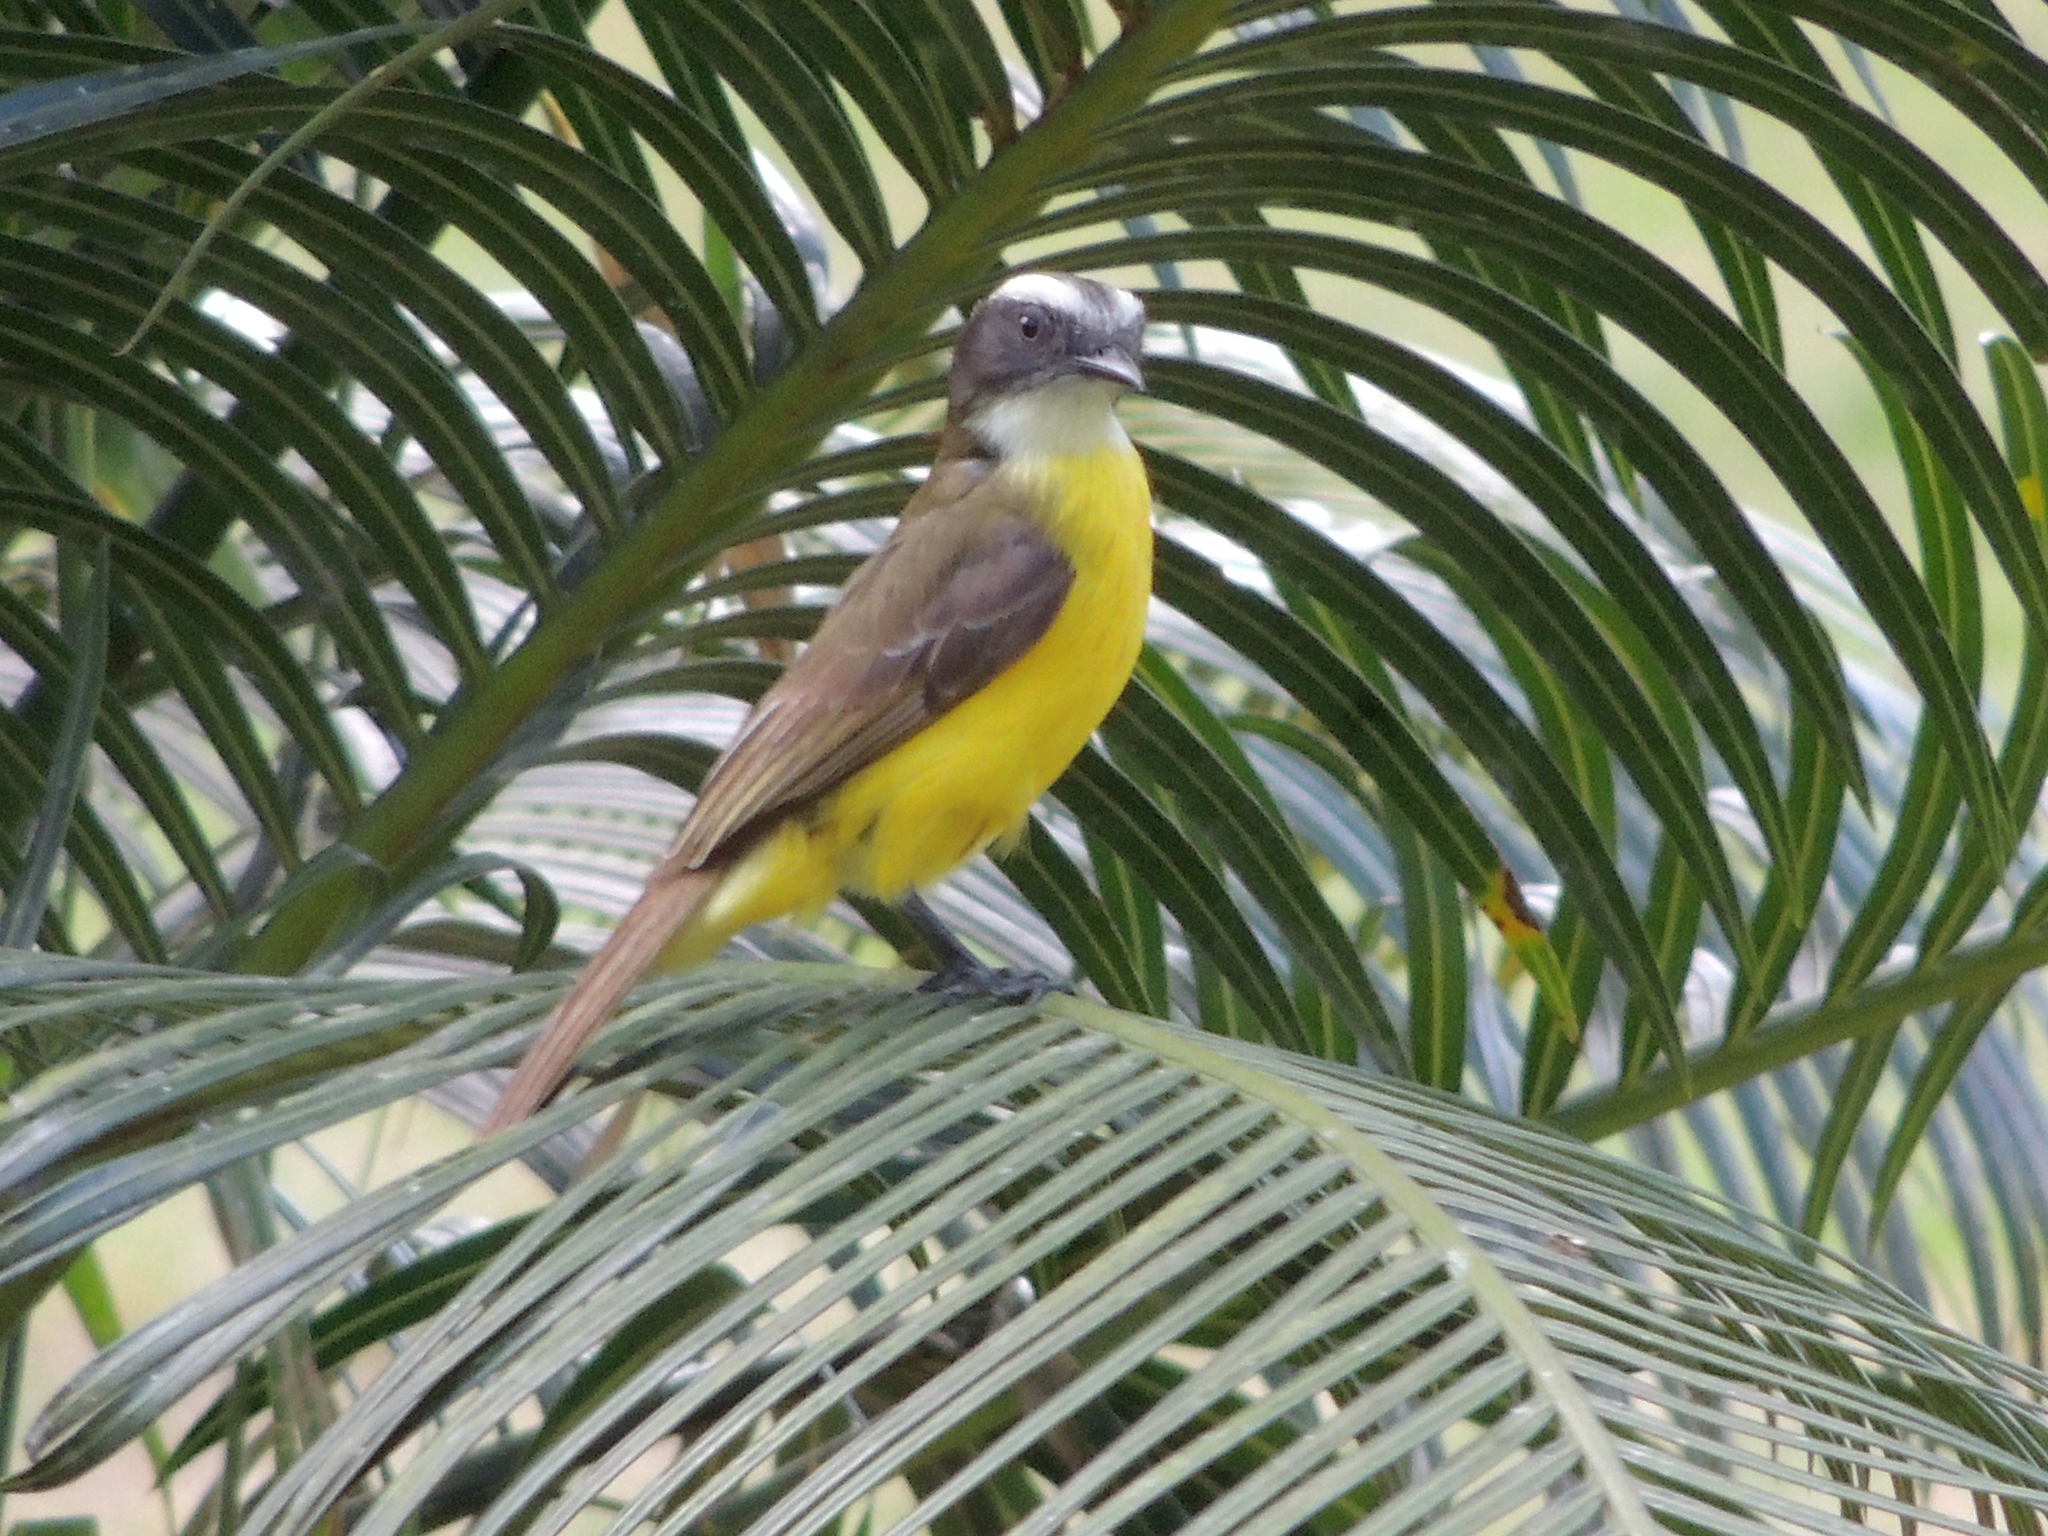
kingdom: Animalia
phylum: Chordata
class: Aves
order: Passeriformes
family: Tyrannidae
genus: Myiozetetes
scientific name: Myiozetetes similis
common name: Social flycatcher
